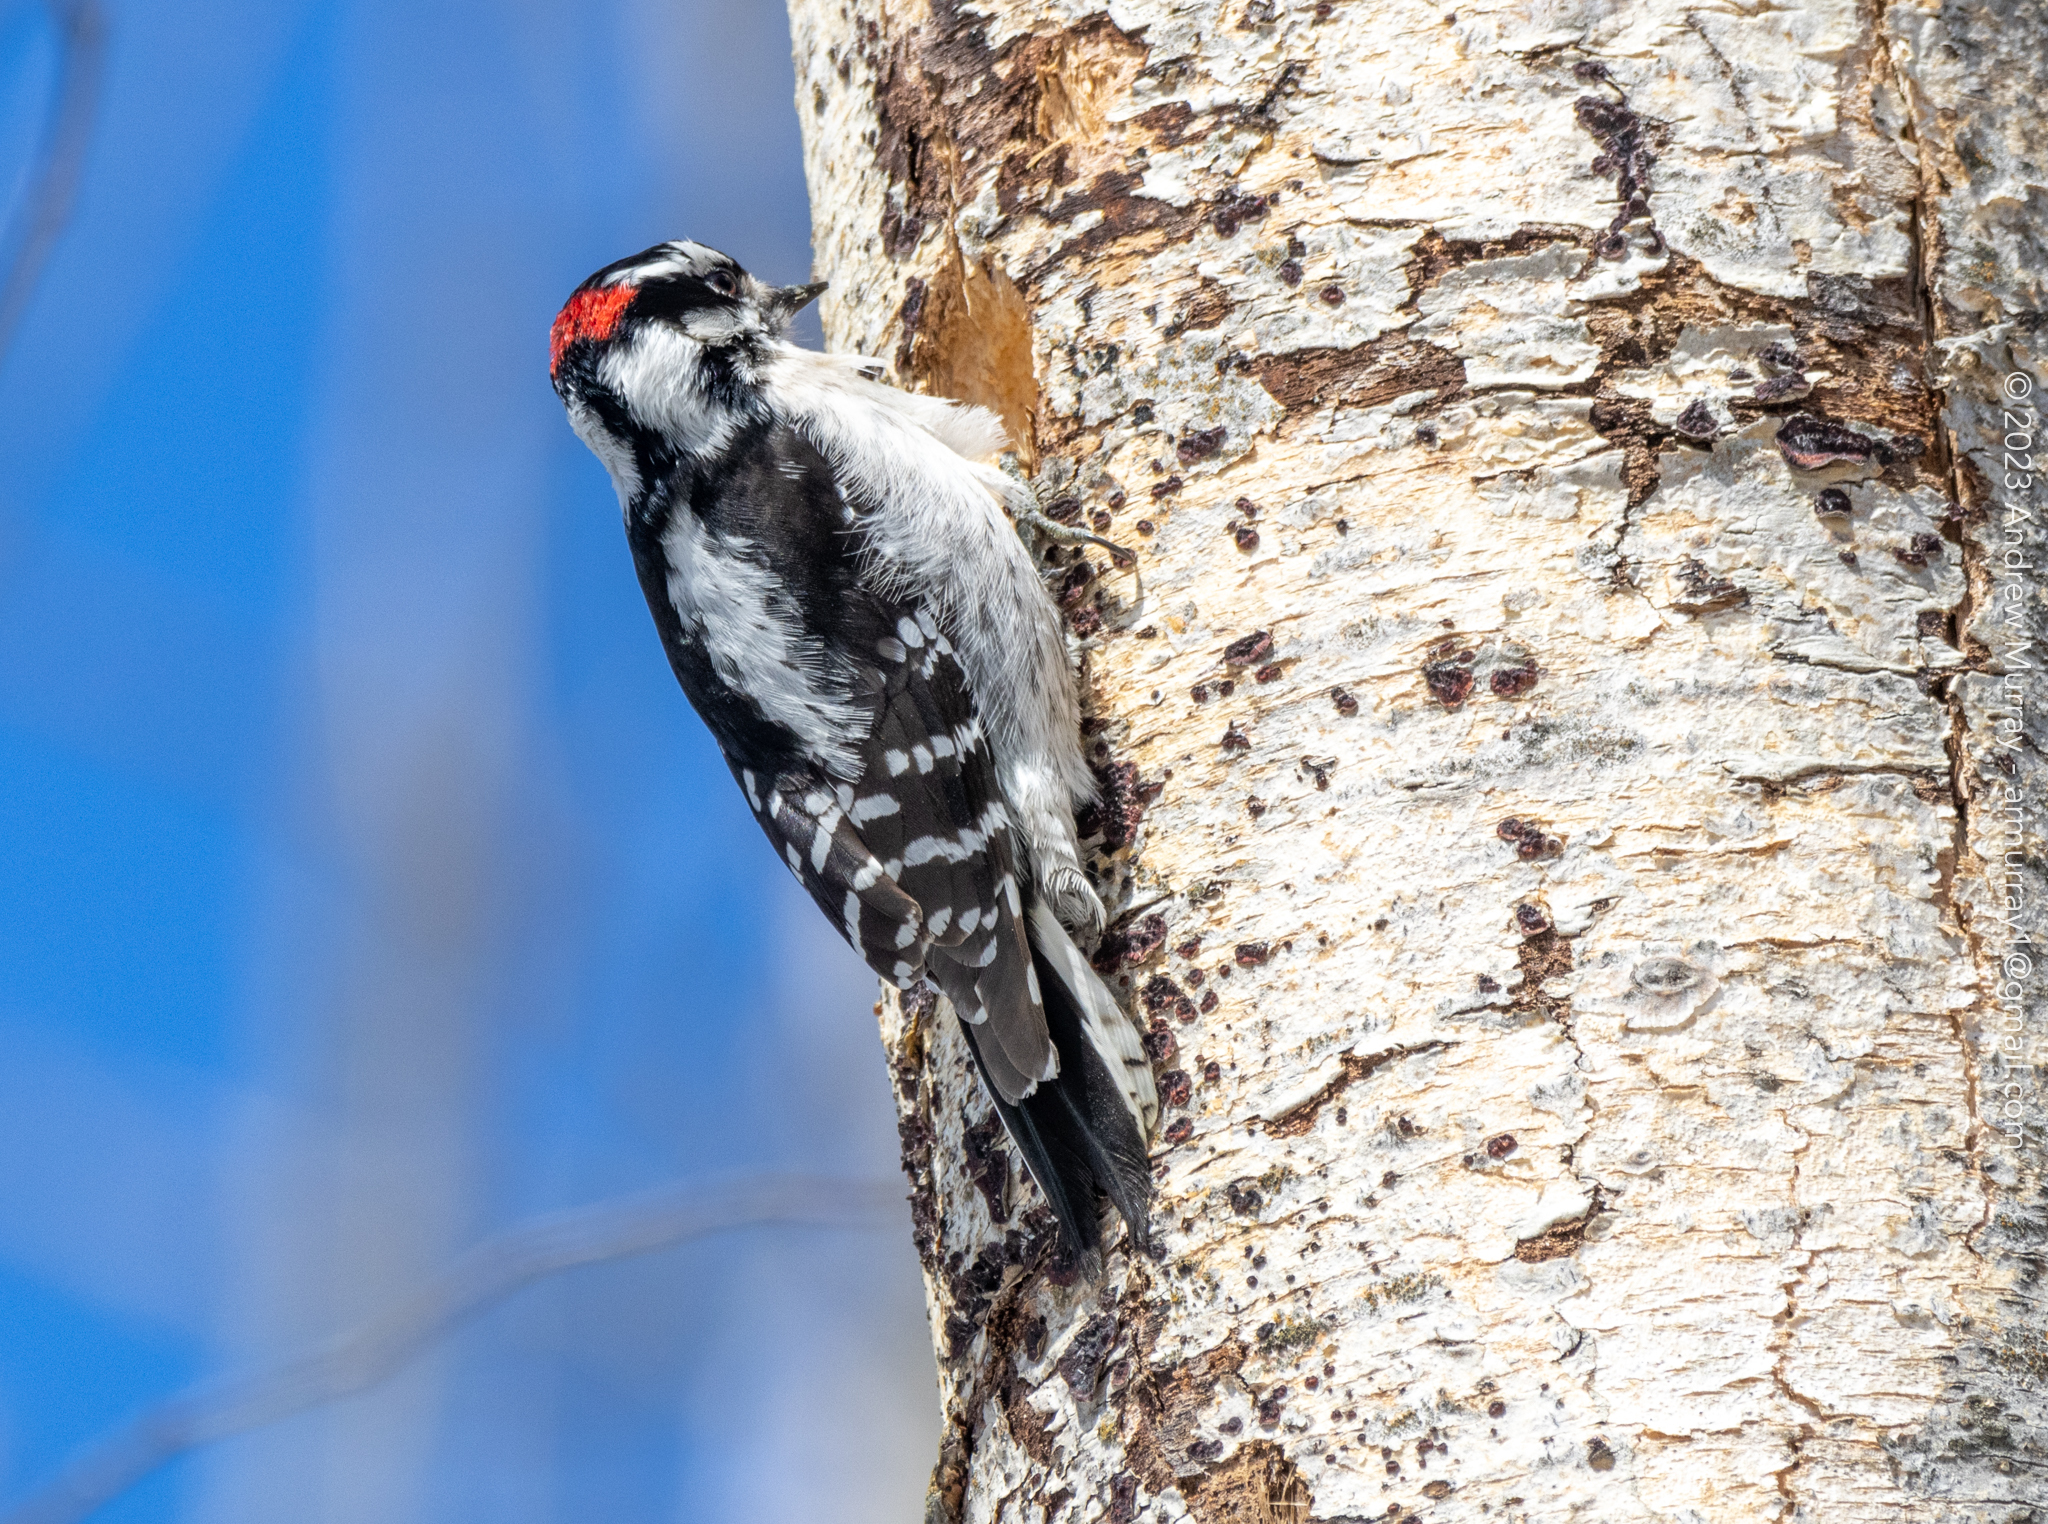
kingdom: Animalia
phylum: Chordata
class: Aves
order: Piciformes
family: Picidae
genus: Dryobates
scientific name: Dryobates pubescens
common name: Downy woodpecker
